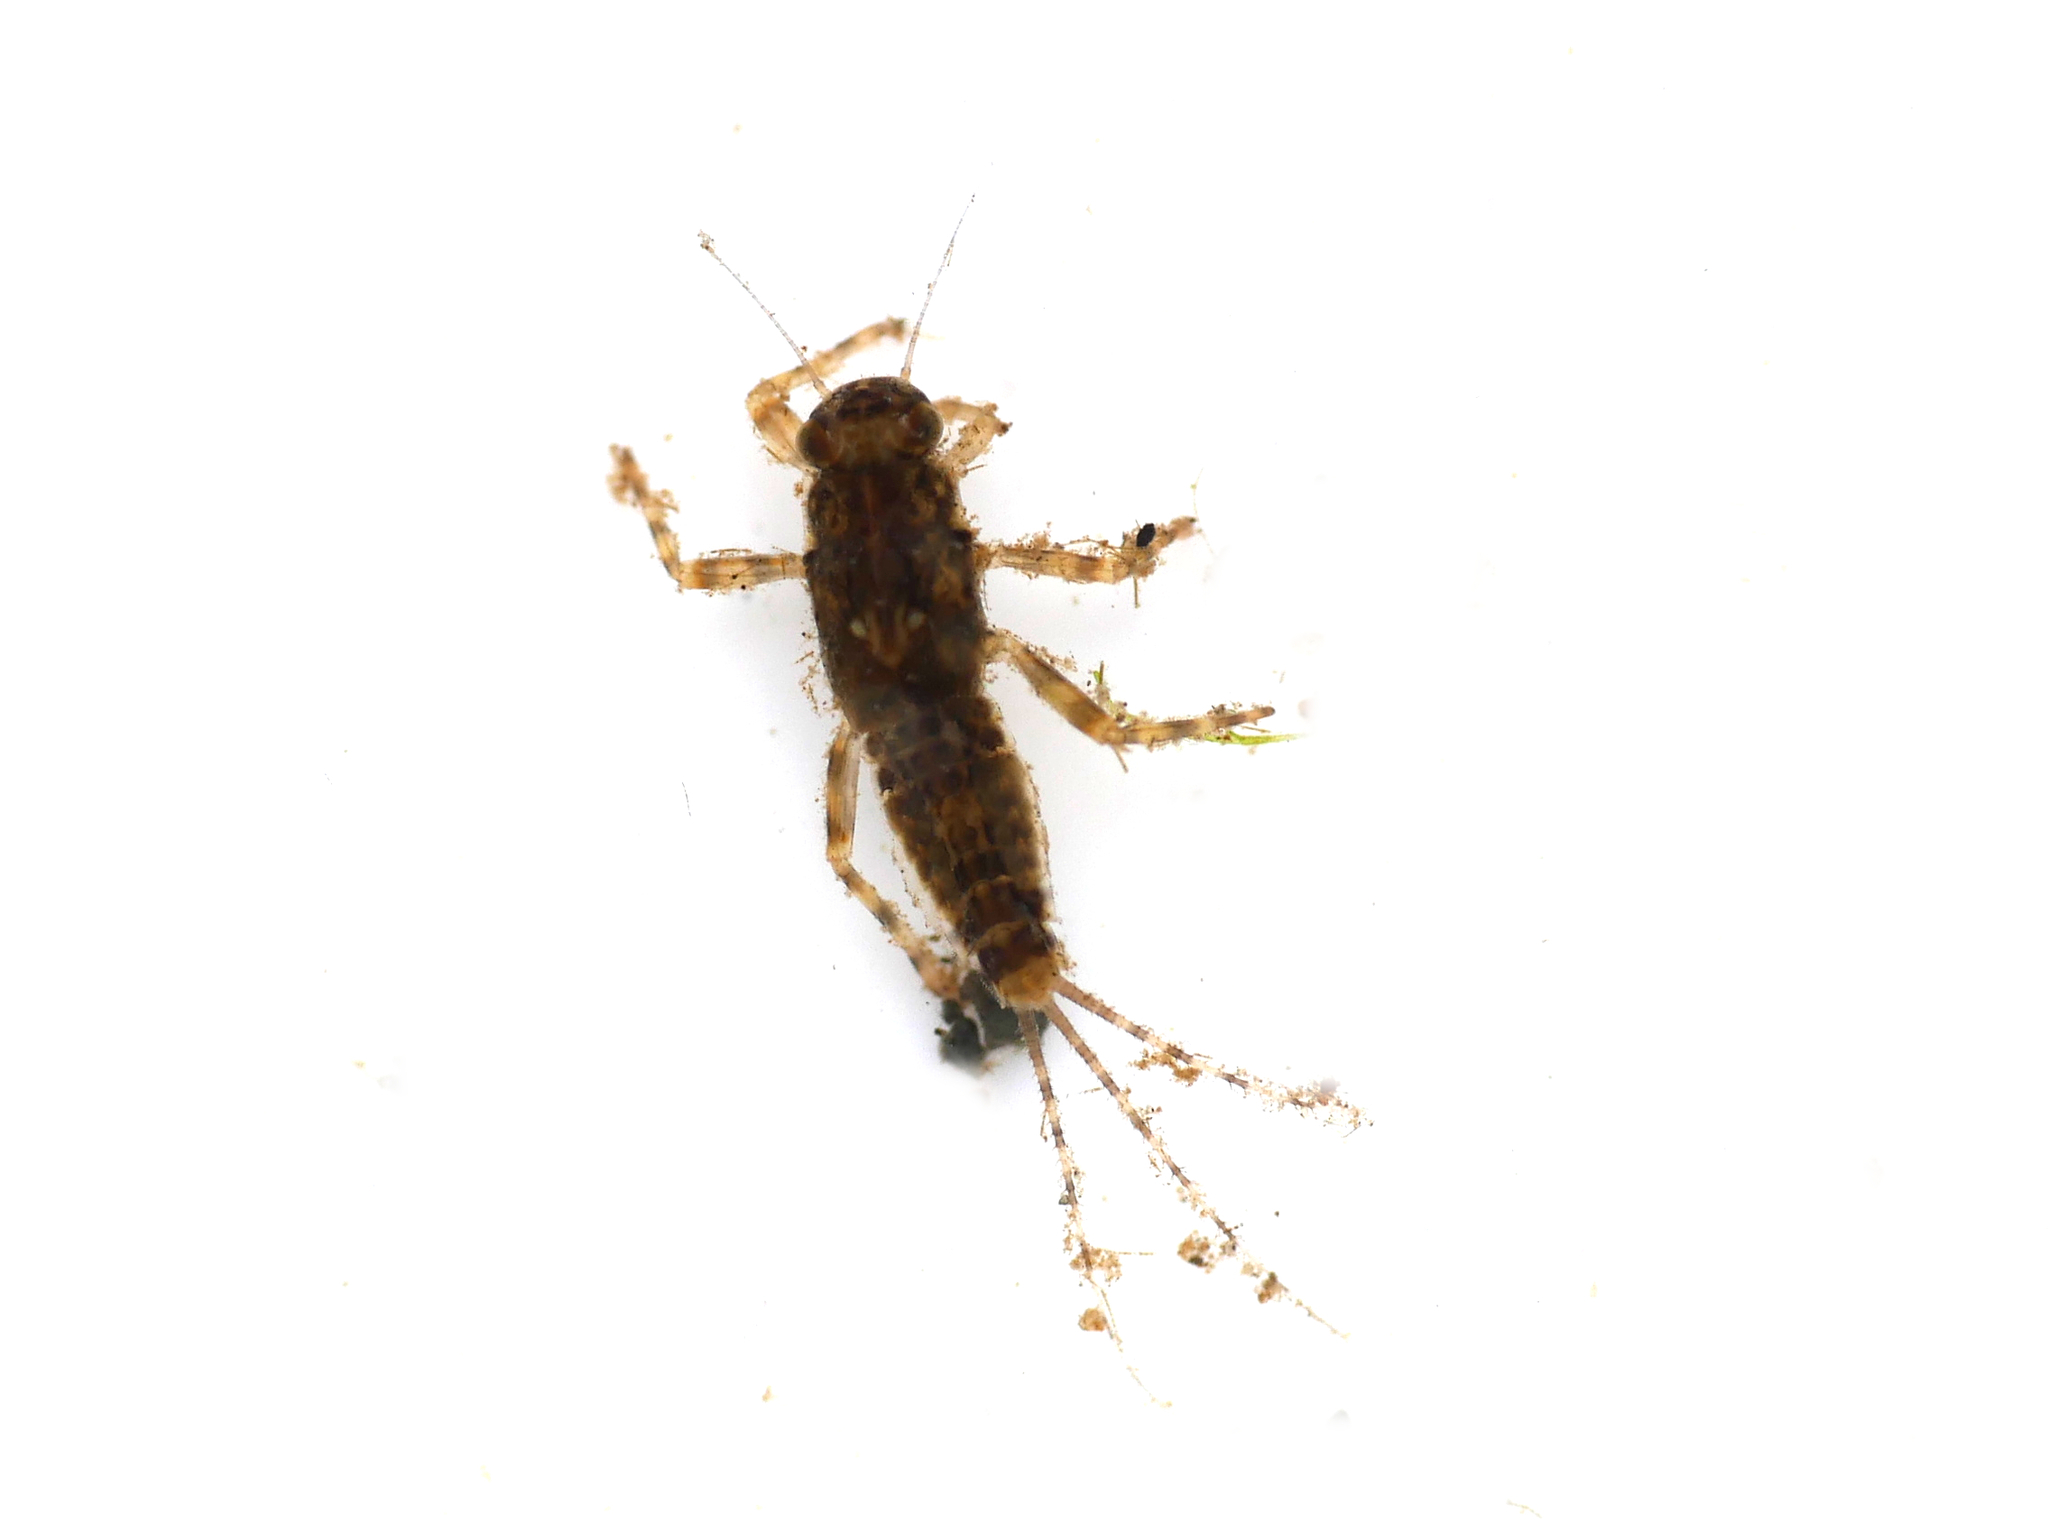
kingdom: Animalia
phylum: Arthropoda
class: Insecta
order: Ephemeroptera
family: Ephemerellidae
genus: Serratella
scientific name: Serratella ignita
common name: Blue-winged olive
